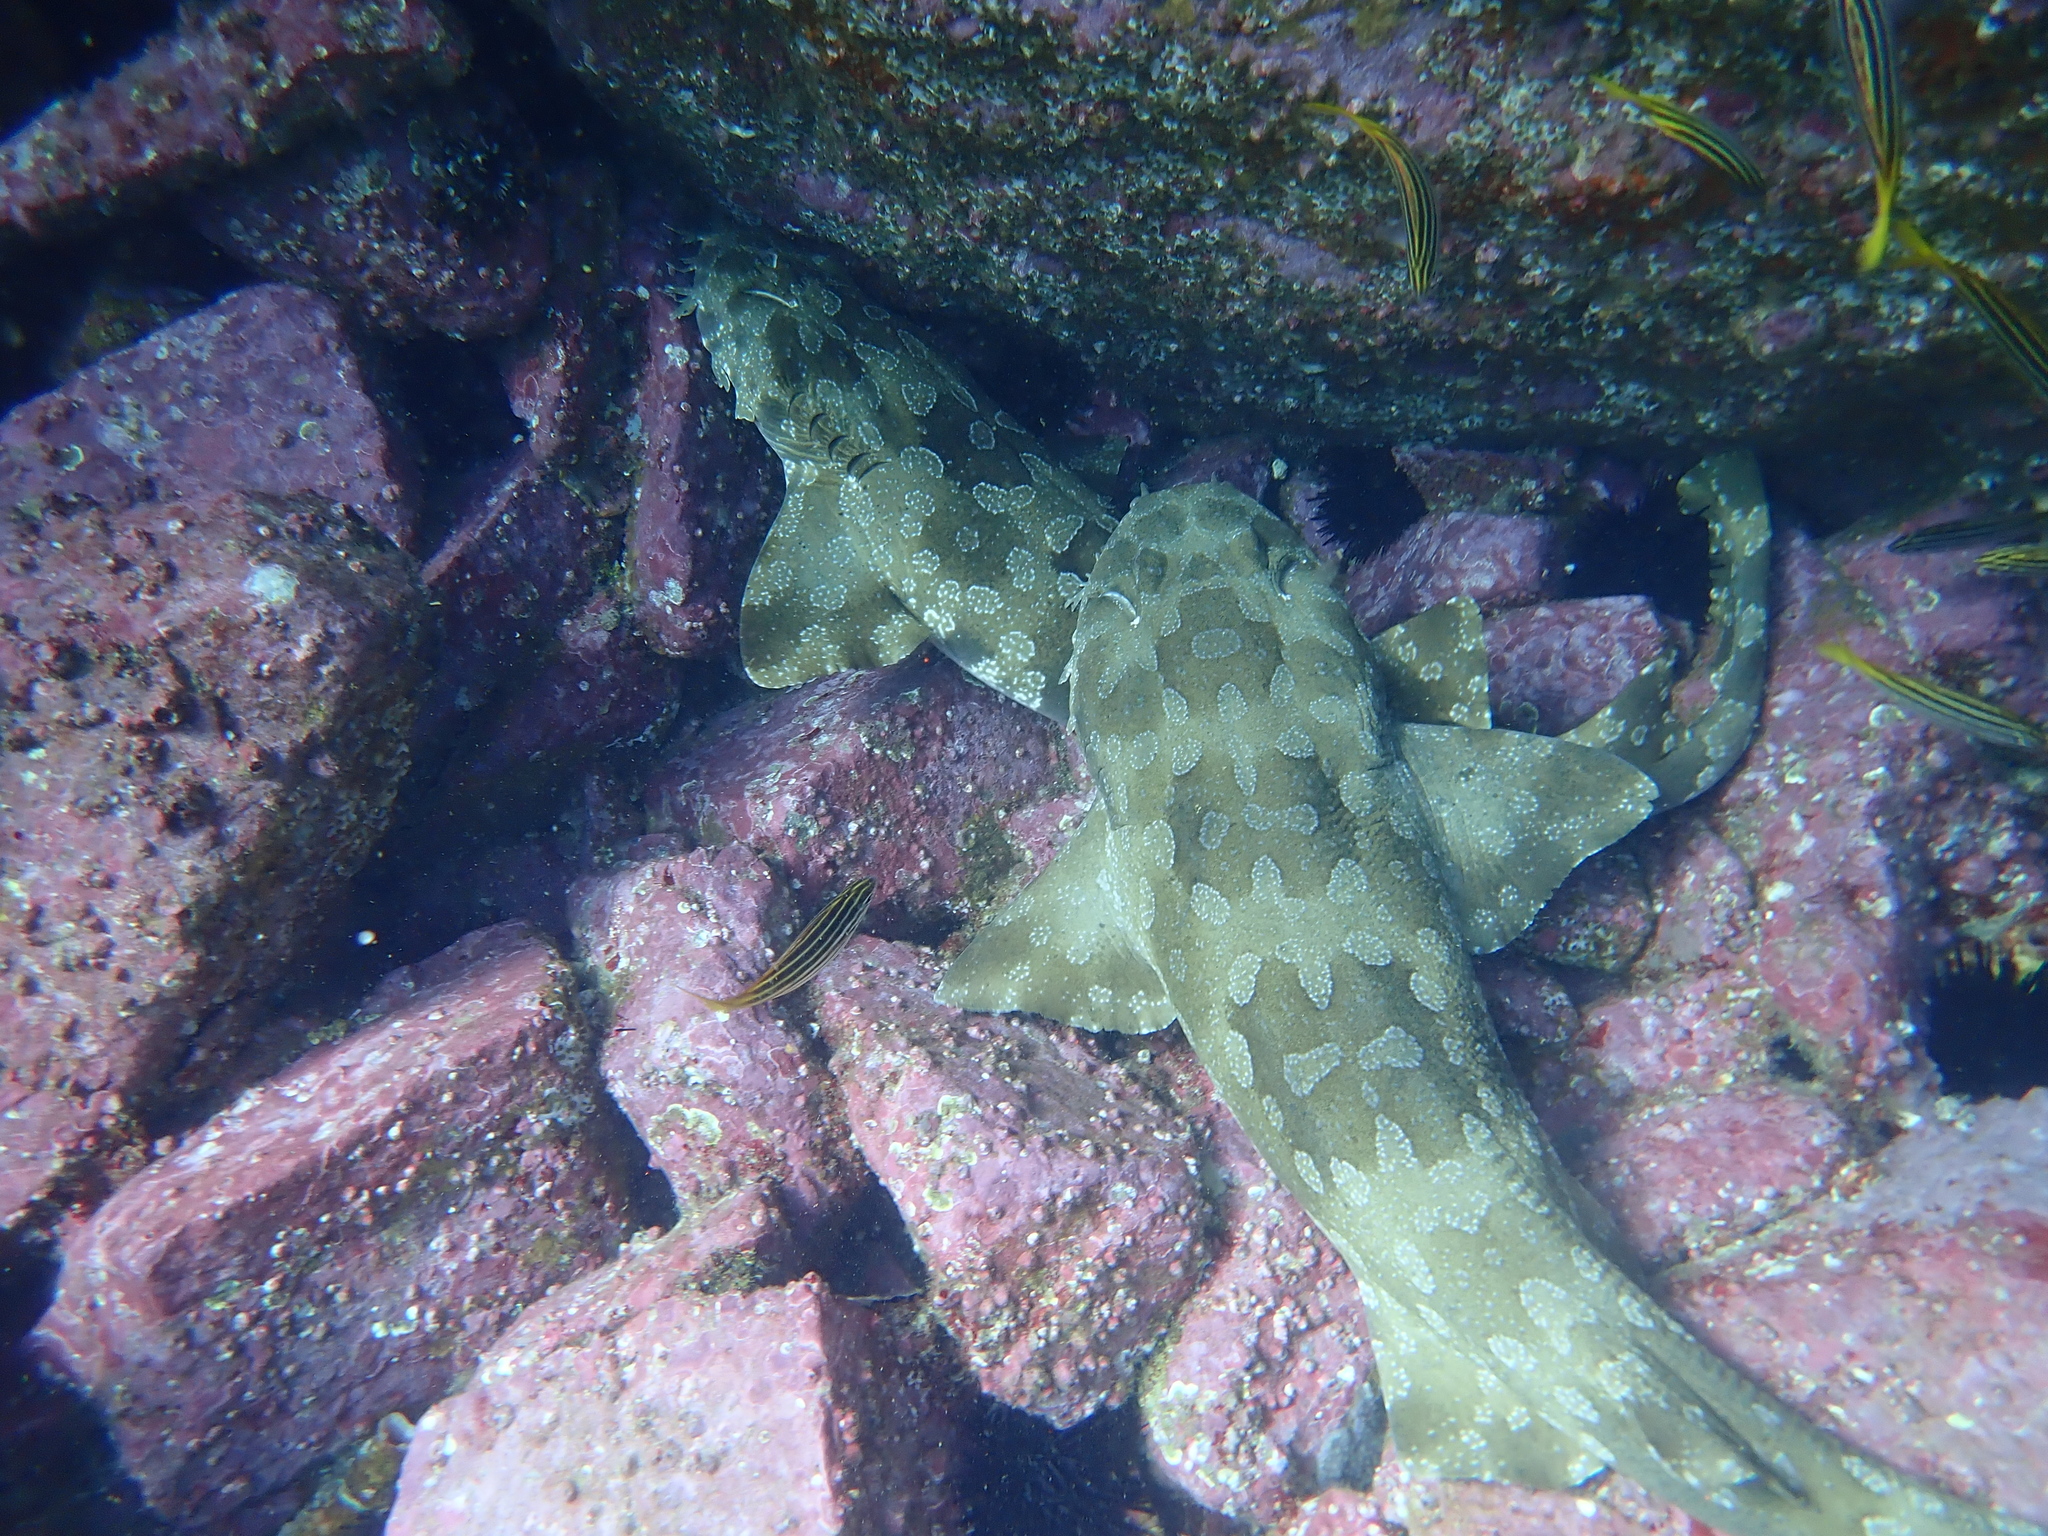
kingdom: Animalia
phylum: Chordata
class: Elasmobranchii
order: Orectolobiformes
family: Orectolobidae
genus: Orectolobus
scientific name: Orectolobus maculatus
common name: Spotted wobbegong
